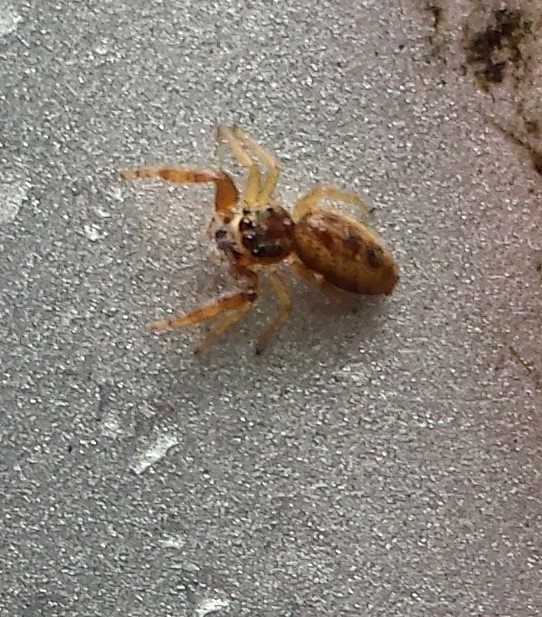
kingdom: Animalia
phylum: Arthropoda
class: Arachnida
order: Araneae
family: Salticidae
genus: Hentzia
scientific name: Hentzia palmarum
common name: Common hentz jumping spider
